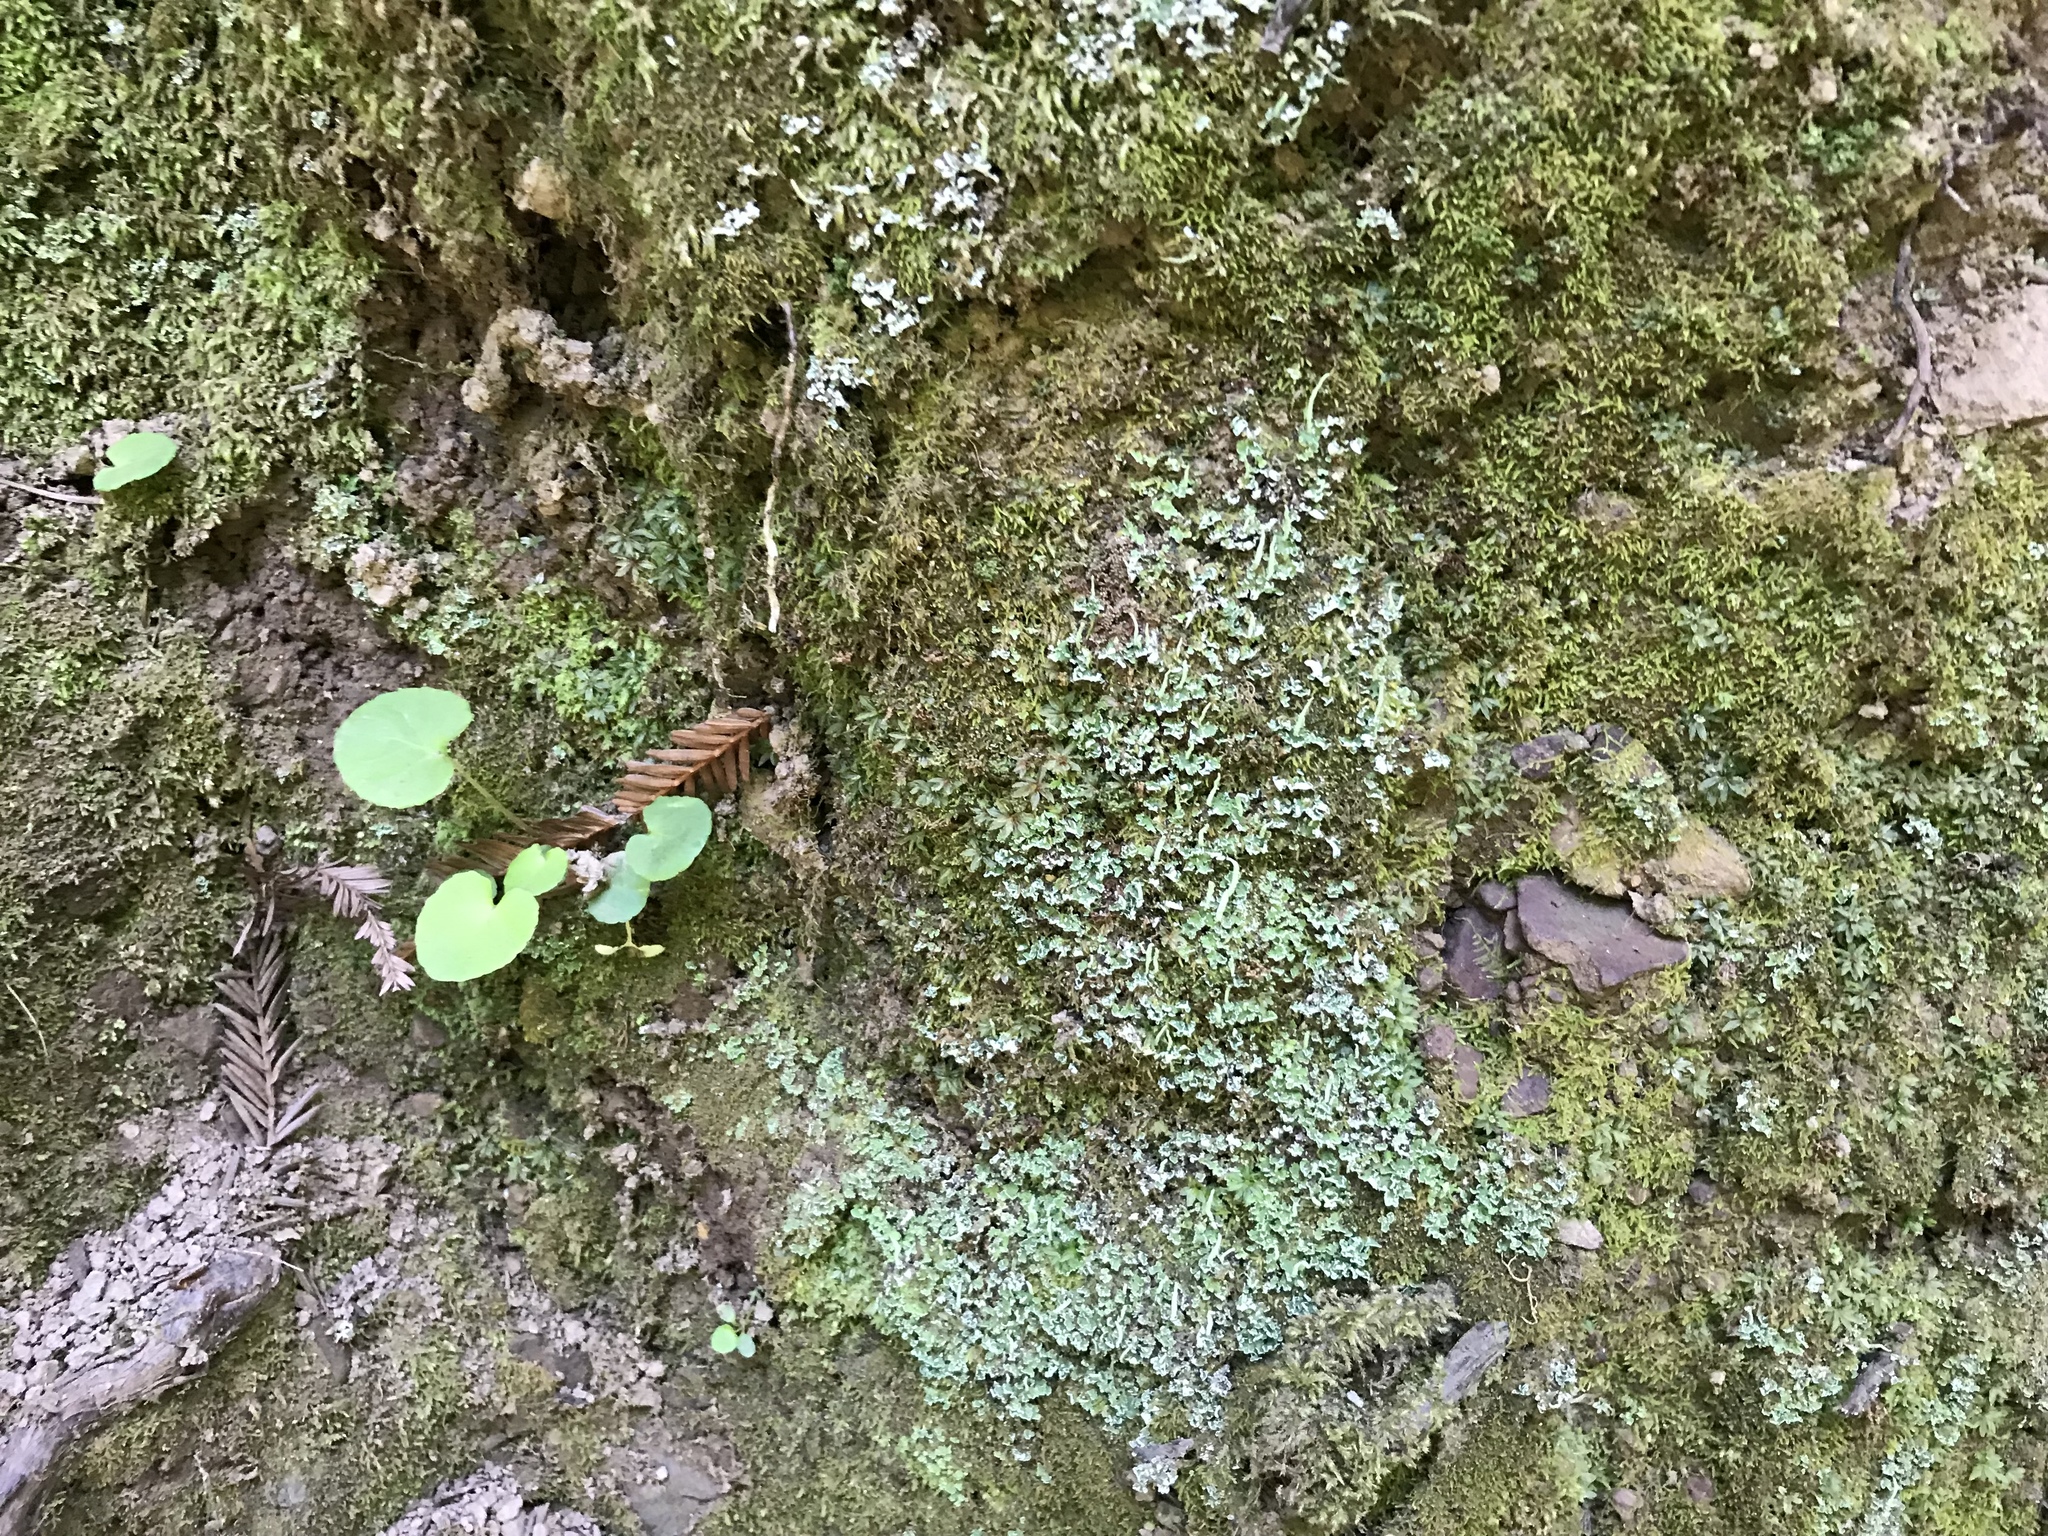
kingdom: Plantae
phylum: Tracheophyta
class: Magnoliopsida
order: Malpighiales
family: Violaceae
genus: Viola
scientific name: Viola sempervirens
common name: Evergreen violet
